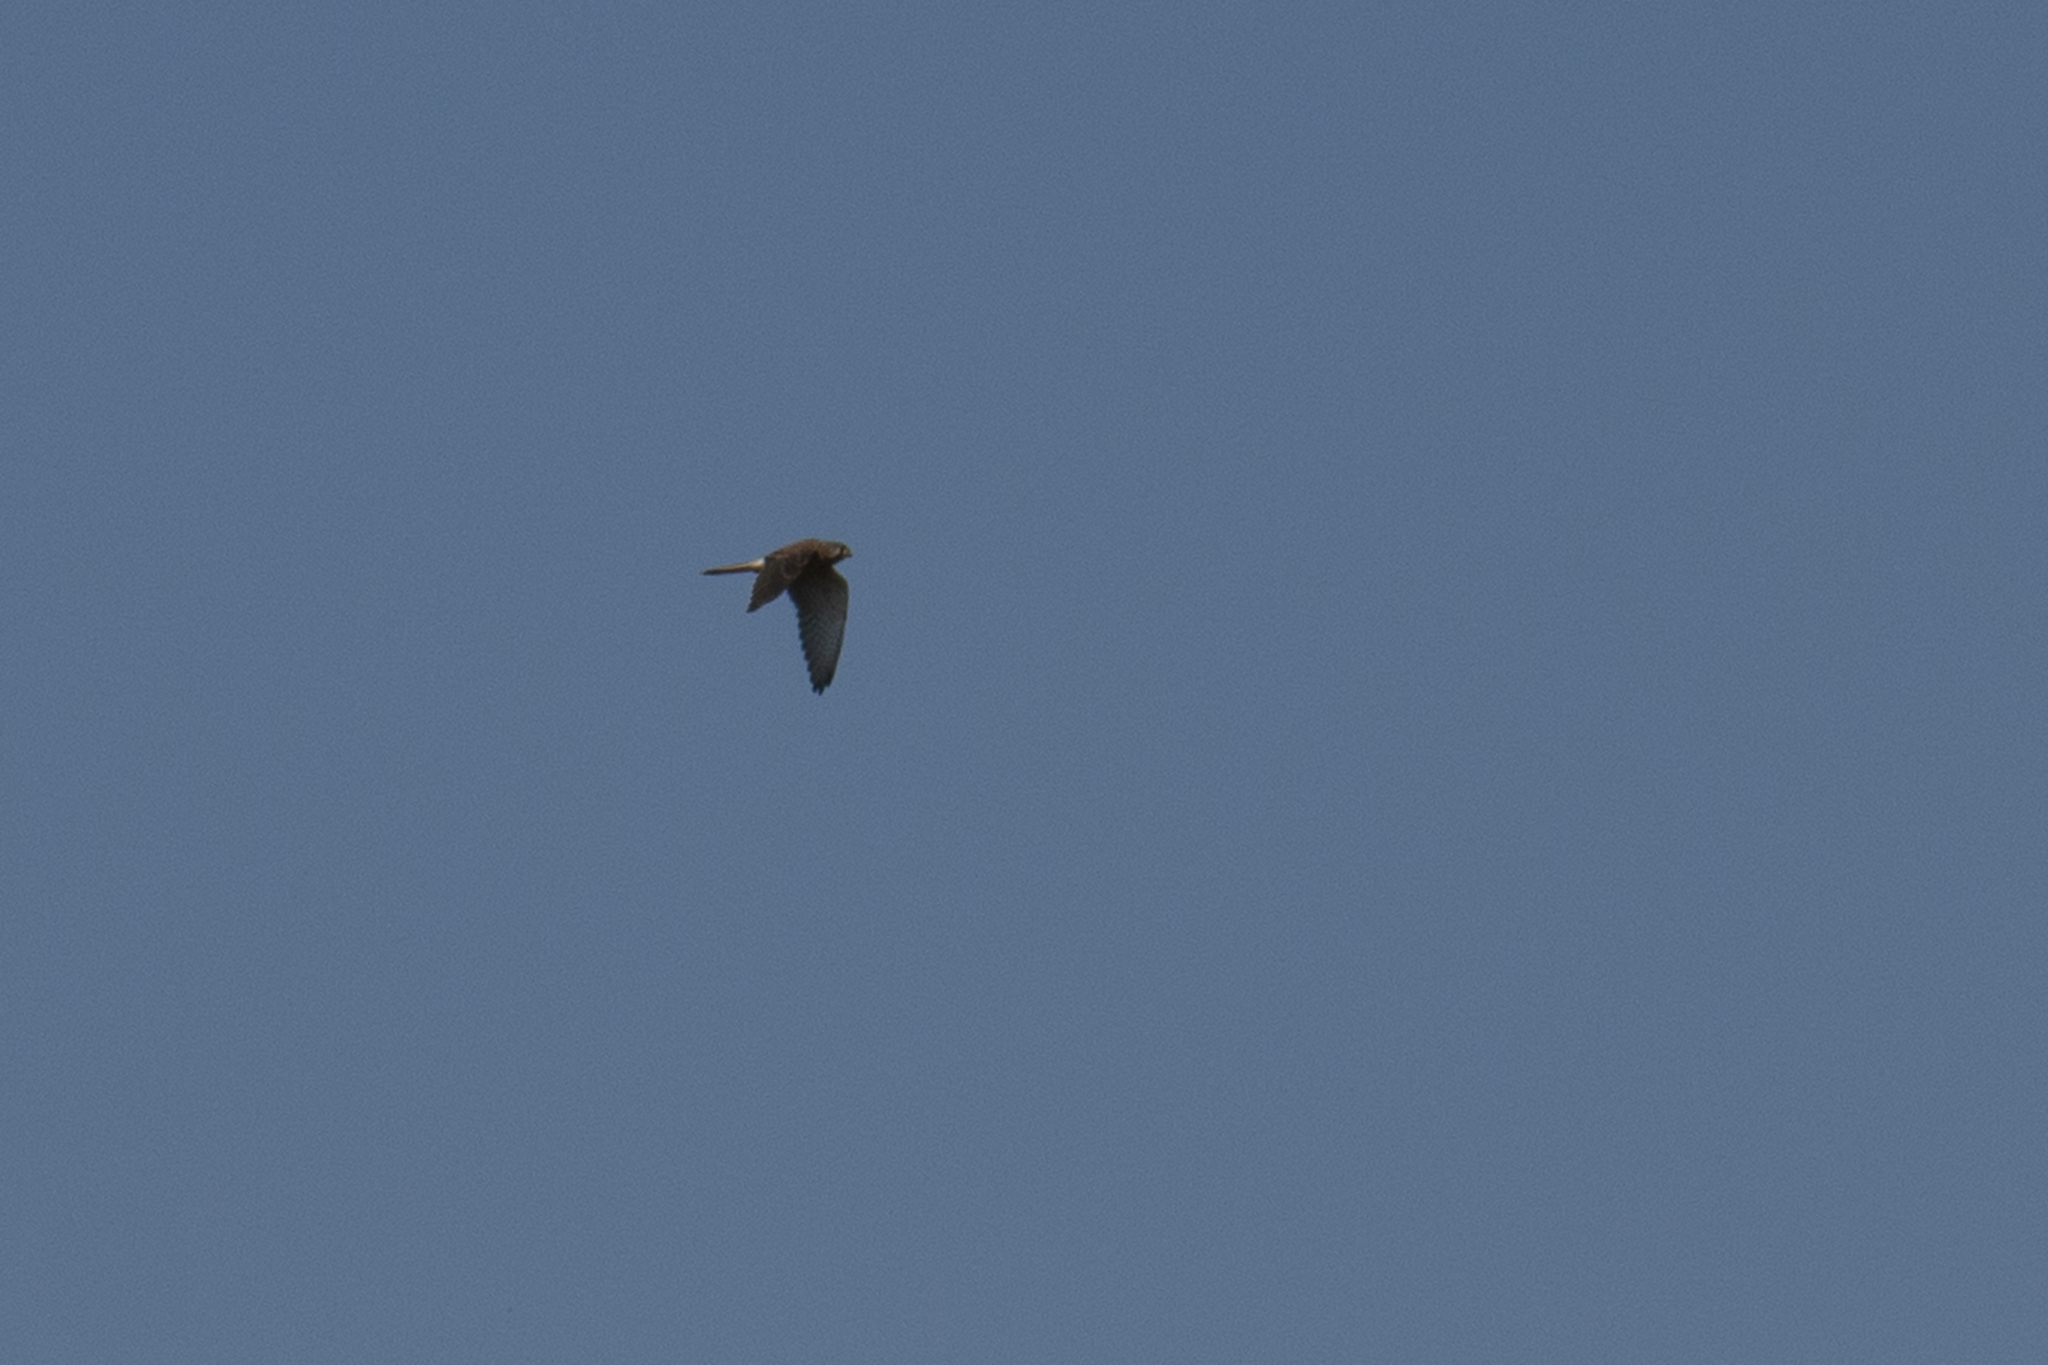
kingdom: Animalia
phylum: Chordata
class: Aves
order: Falconiformes
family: Falconidae
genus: Falco
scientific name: Falco tinnunculus
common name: Common kestrel
